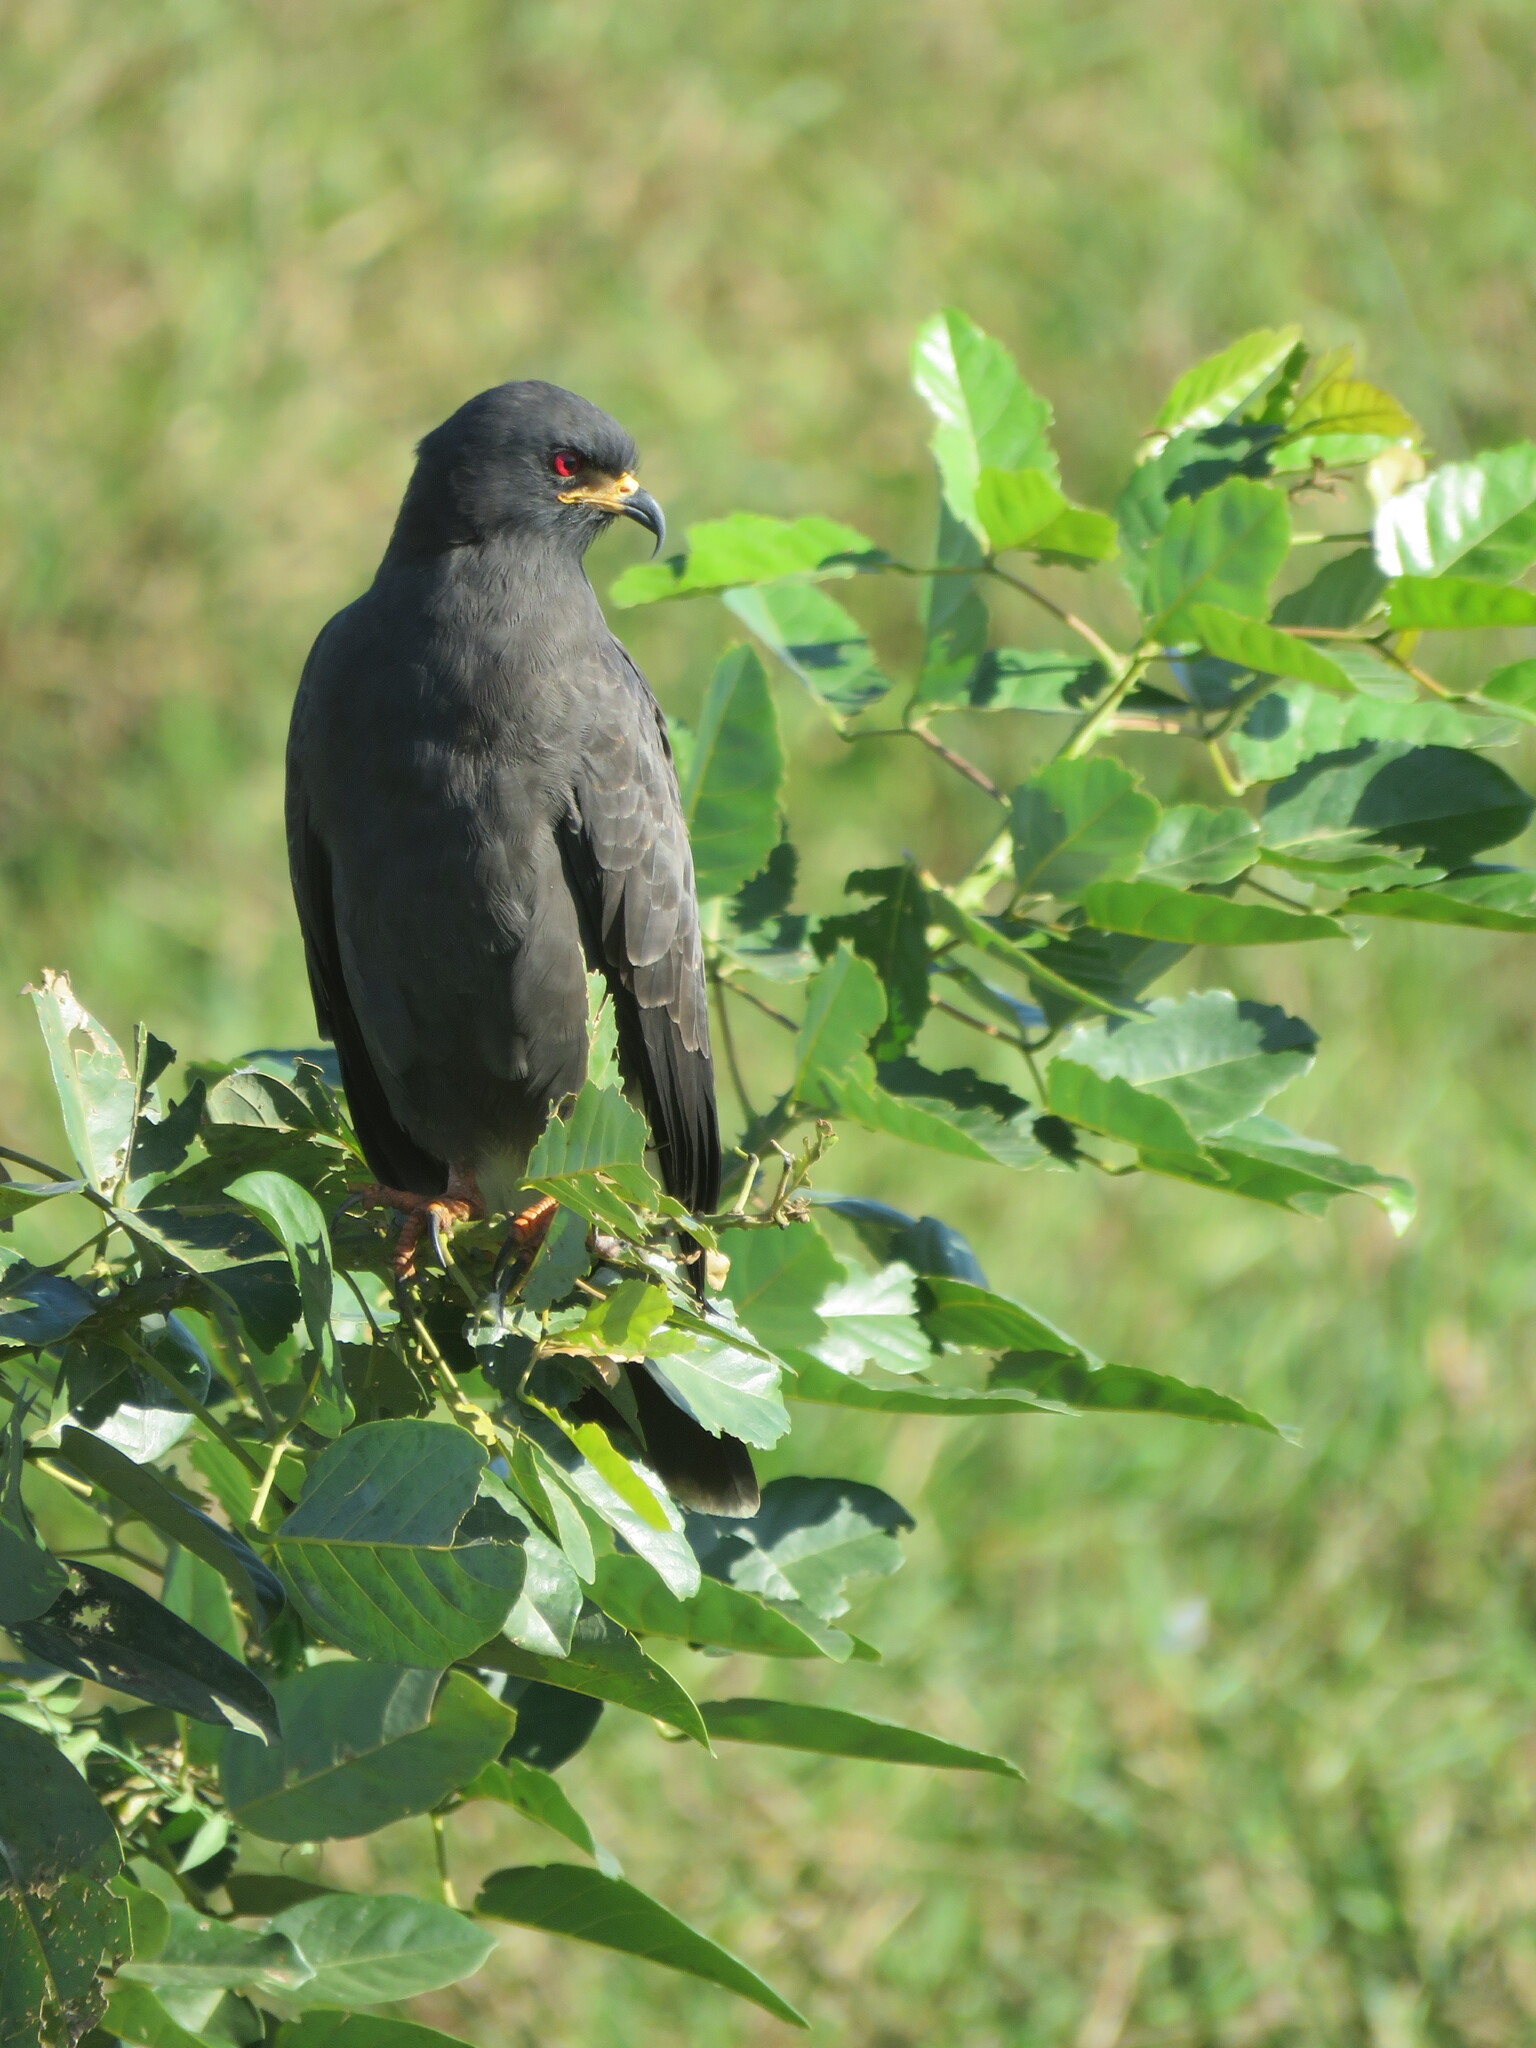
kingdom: Animalia
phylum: Chordata
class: Aves
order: Accipitriformes
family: Accipitridae
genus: Rostrhamus
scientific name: Rostrhamus sociabilis
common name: Snail kite
